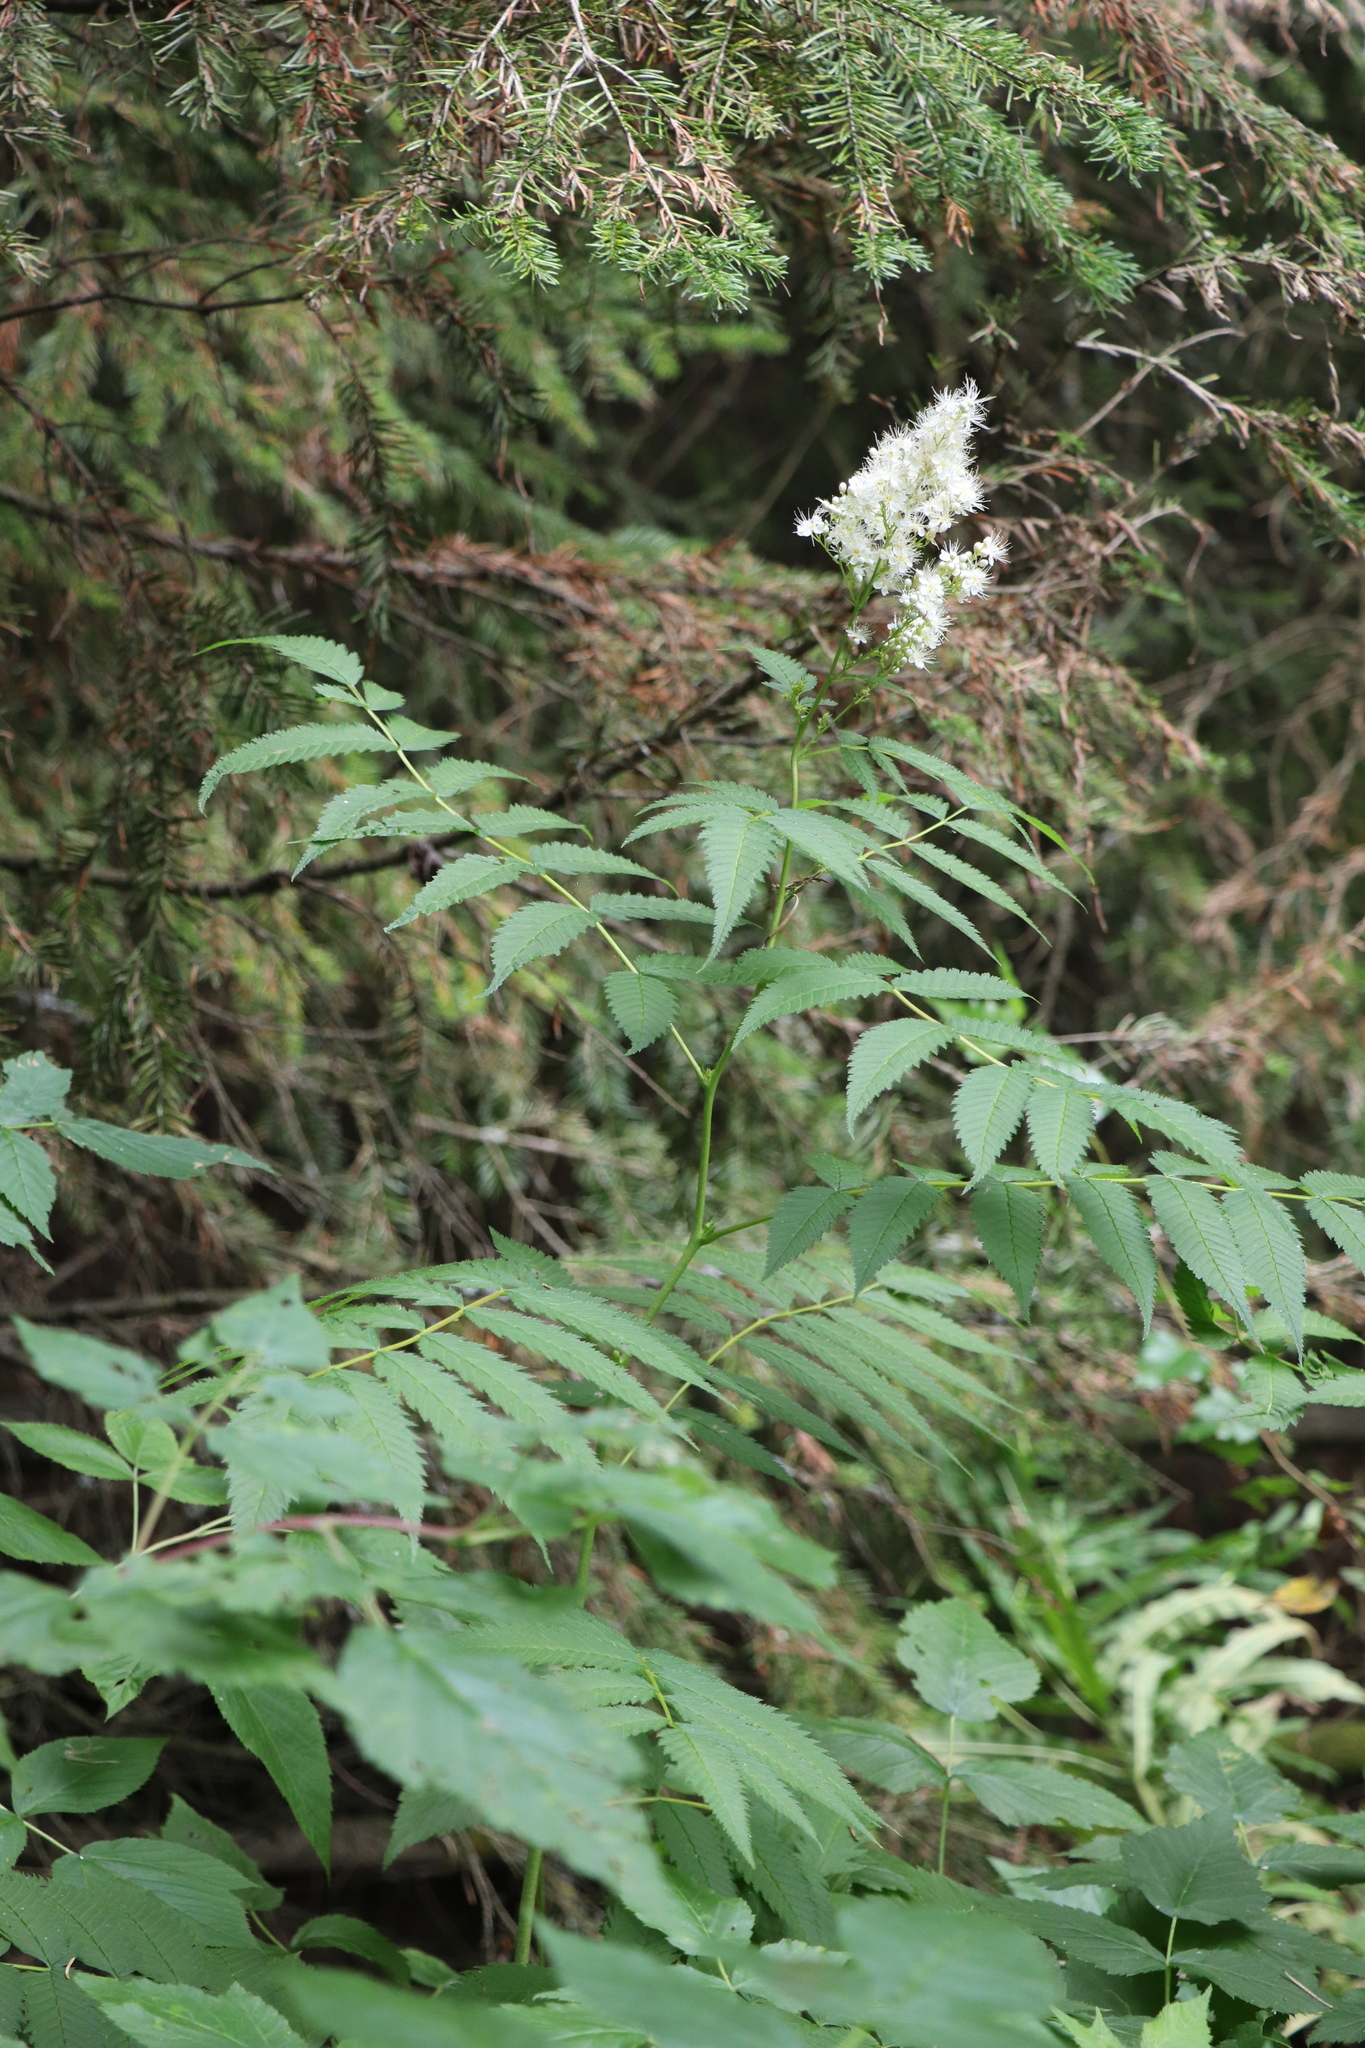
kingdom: Plantae
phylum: Tracheophyta
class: Magnoliopsida
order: Rosales
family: Rosaceae
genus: Sorbaria
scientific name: Sorbaria sorbifolia
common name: False spiraea
